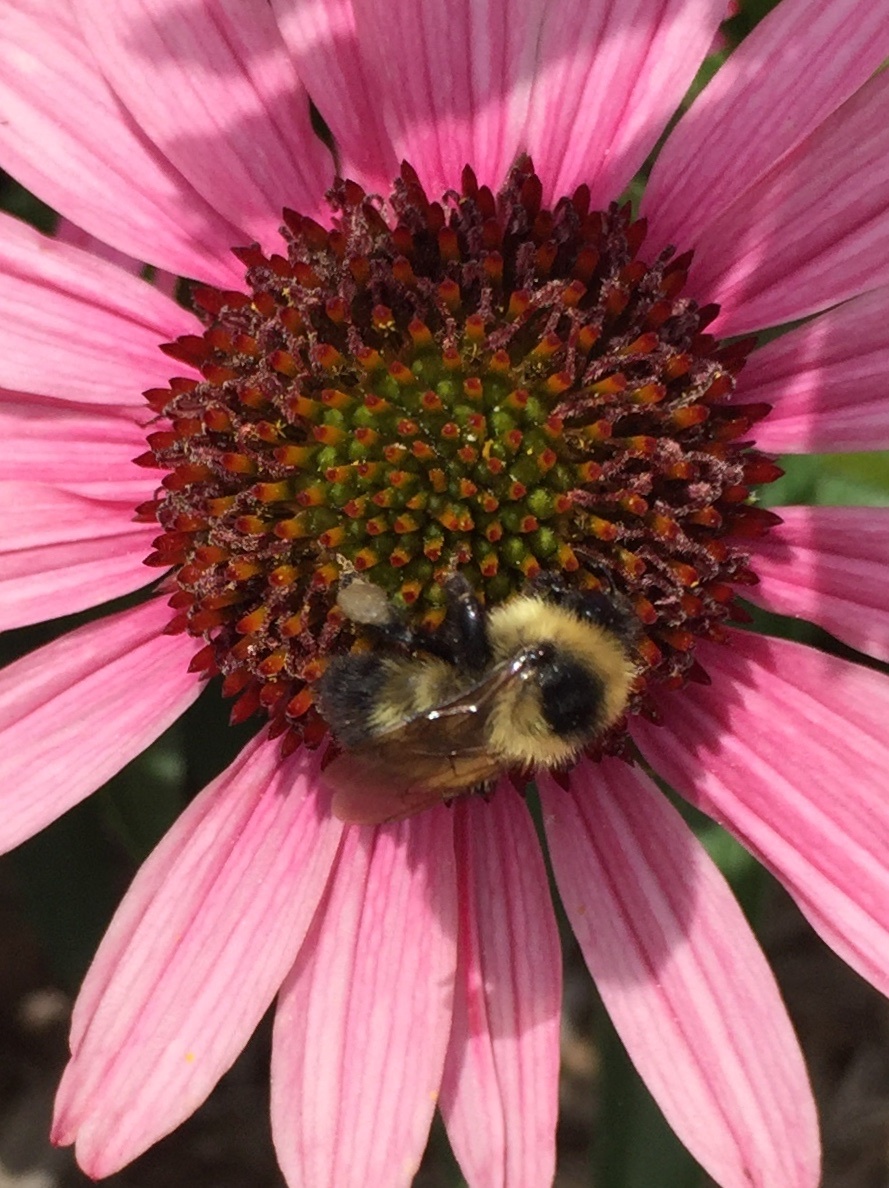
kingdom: Animalia
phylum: Arthropoda
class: Insecta
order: Hymenoptera
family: Apidae
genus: Bombus
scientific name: Bombus rufocinctus
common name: Red-belted bumble bee
